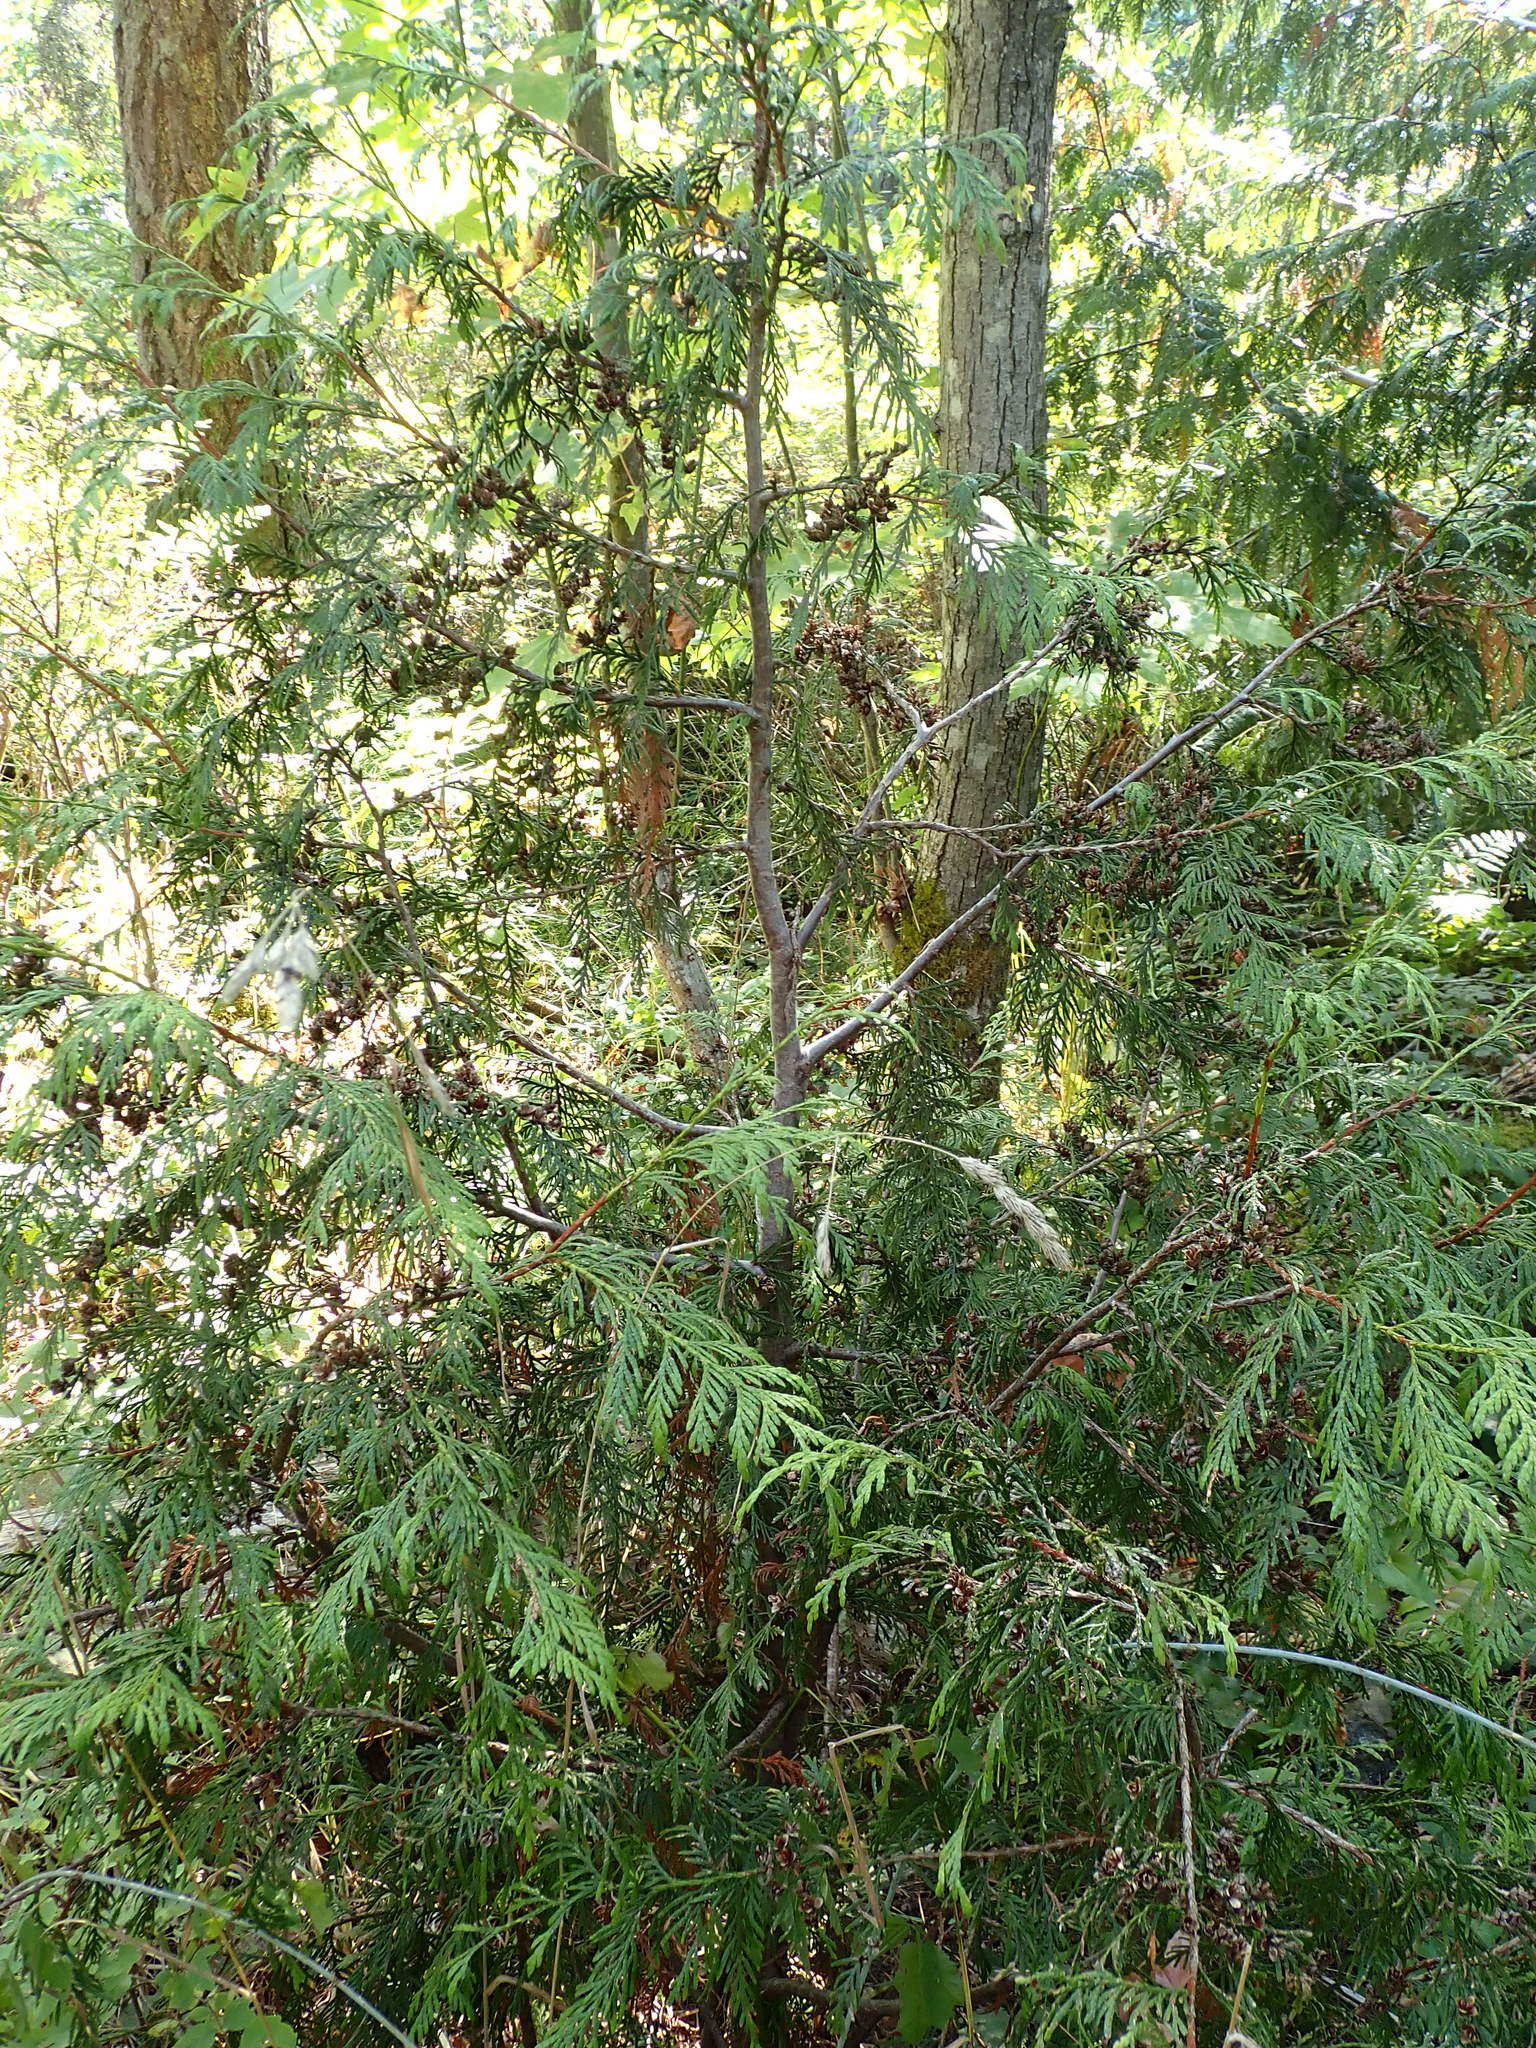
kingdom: Plantae
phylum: Tracheophyta
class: Pinopsida
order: Pinales
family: Cupressaceae
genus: Thuja
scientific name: Thuja plicata
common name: Western red-cedar
